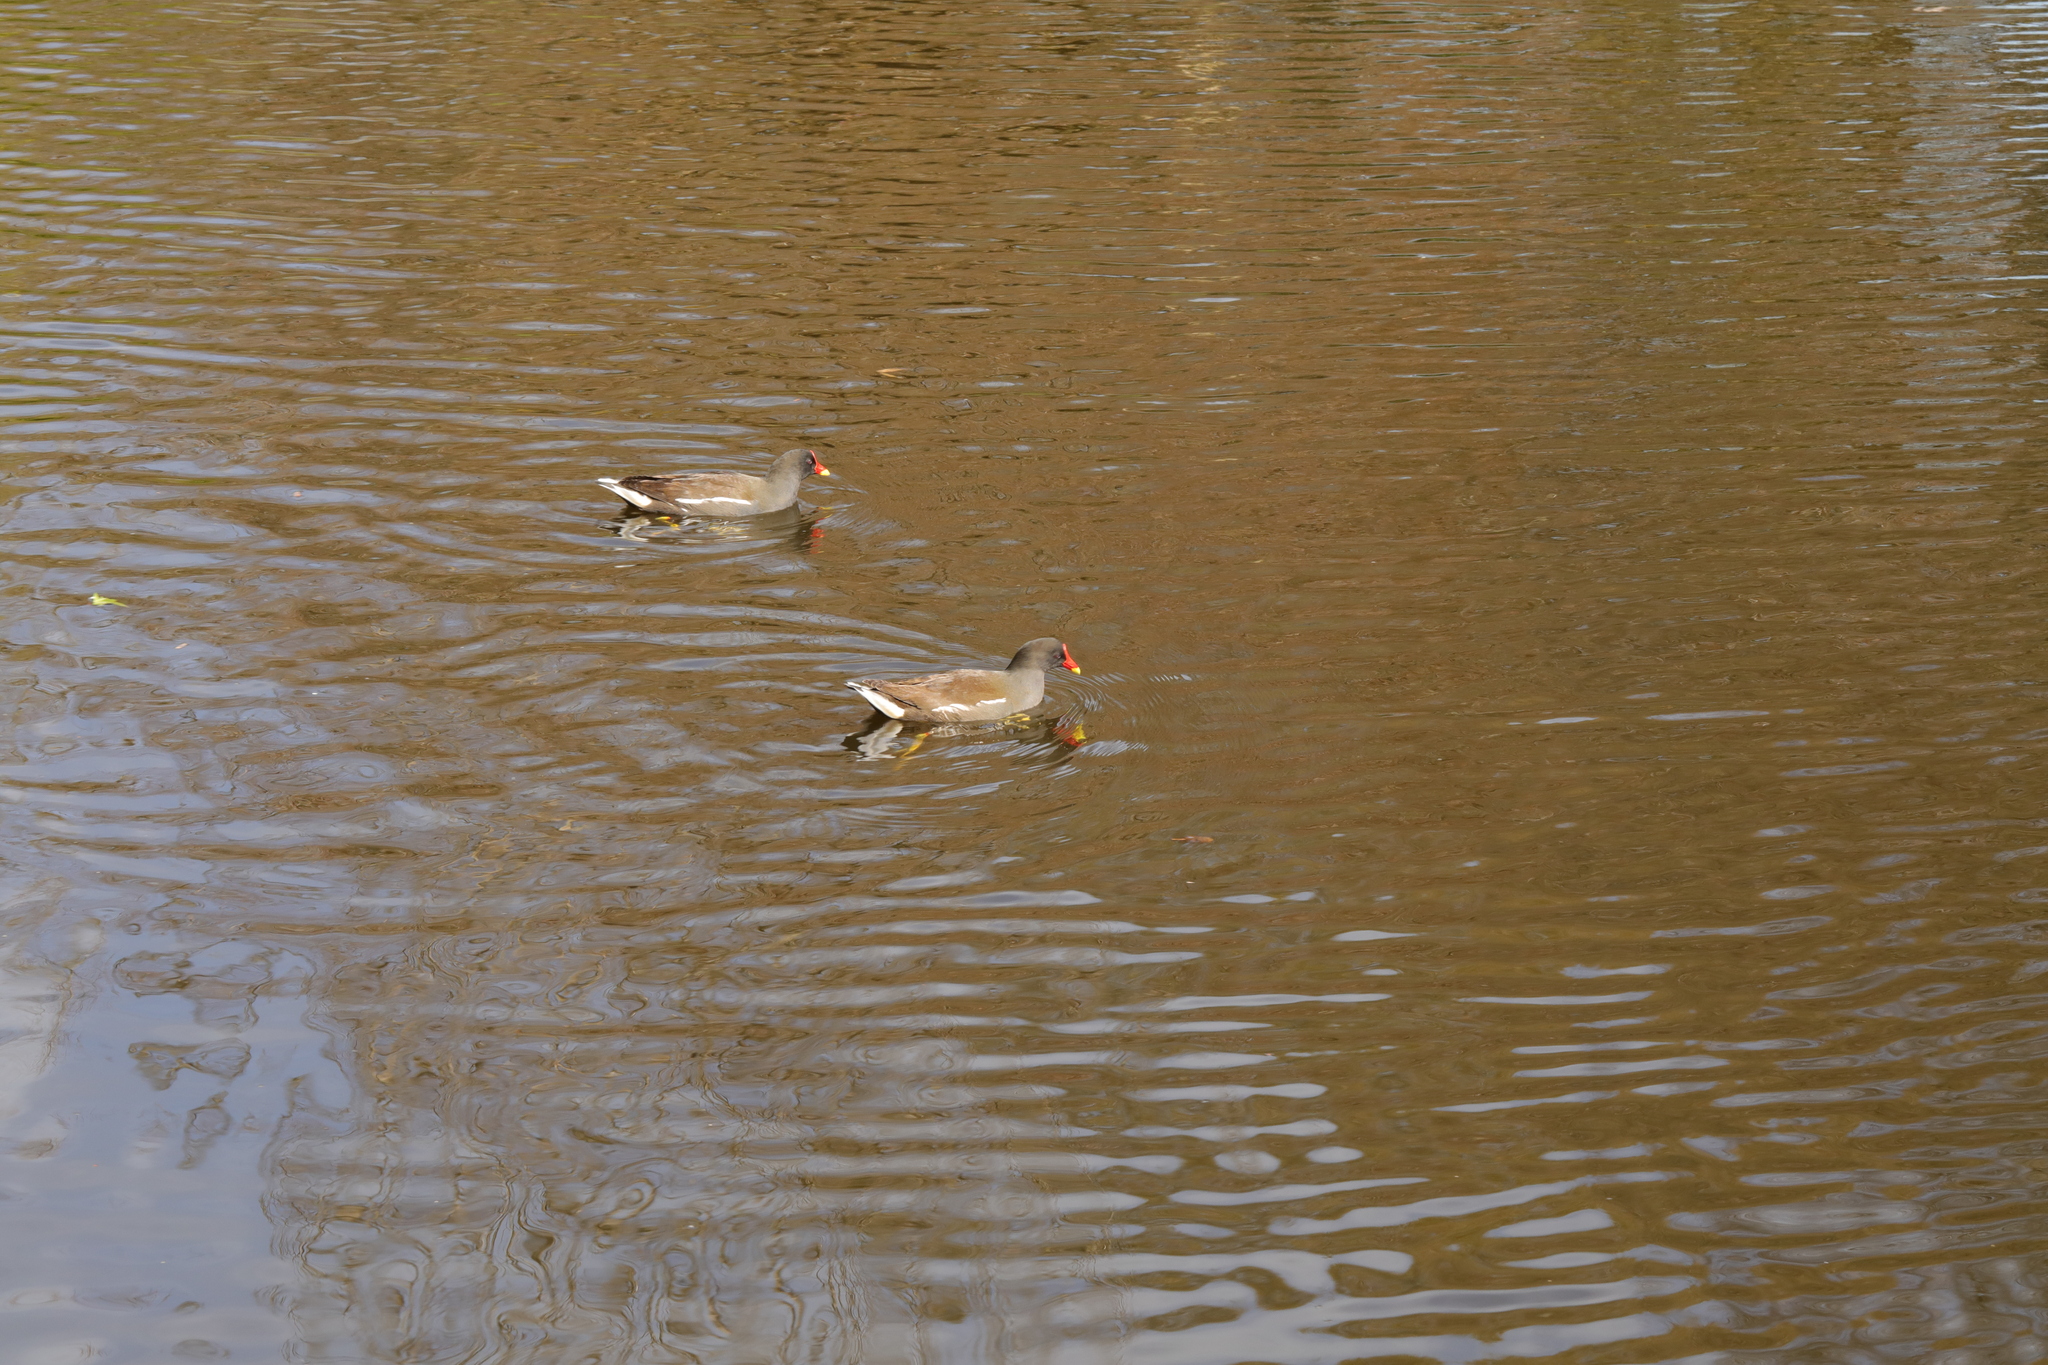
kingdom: Animalia
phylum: Chordata
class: Aves
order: Gruiformes
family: Rallidae
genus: Gallinula
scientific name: Gallinula chloropus
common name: Common moorhen
